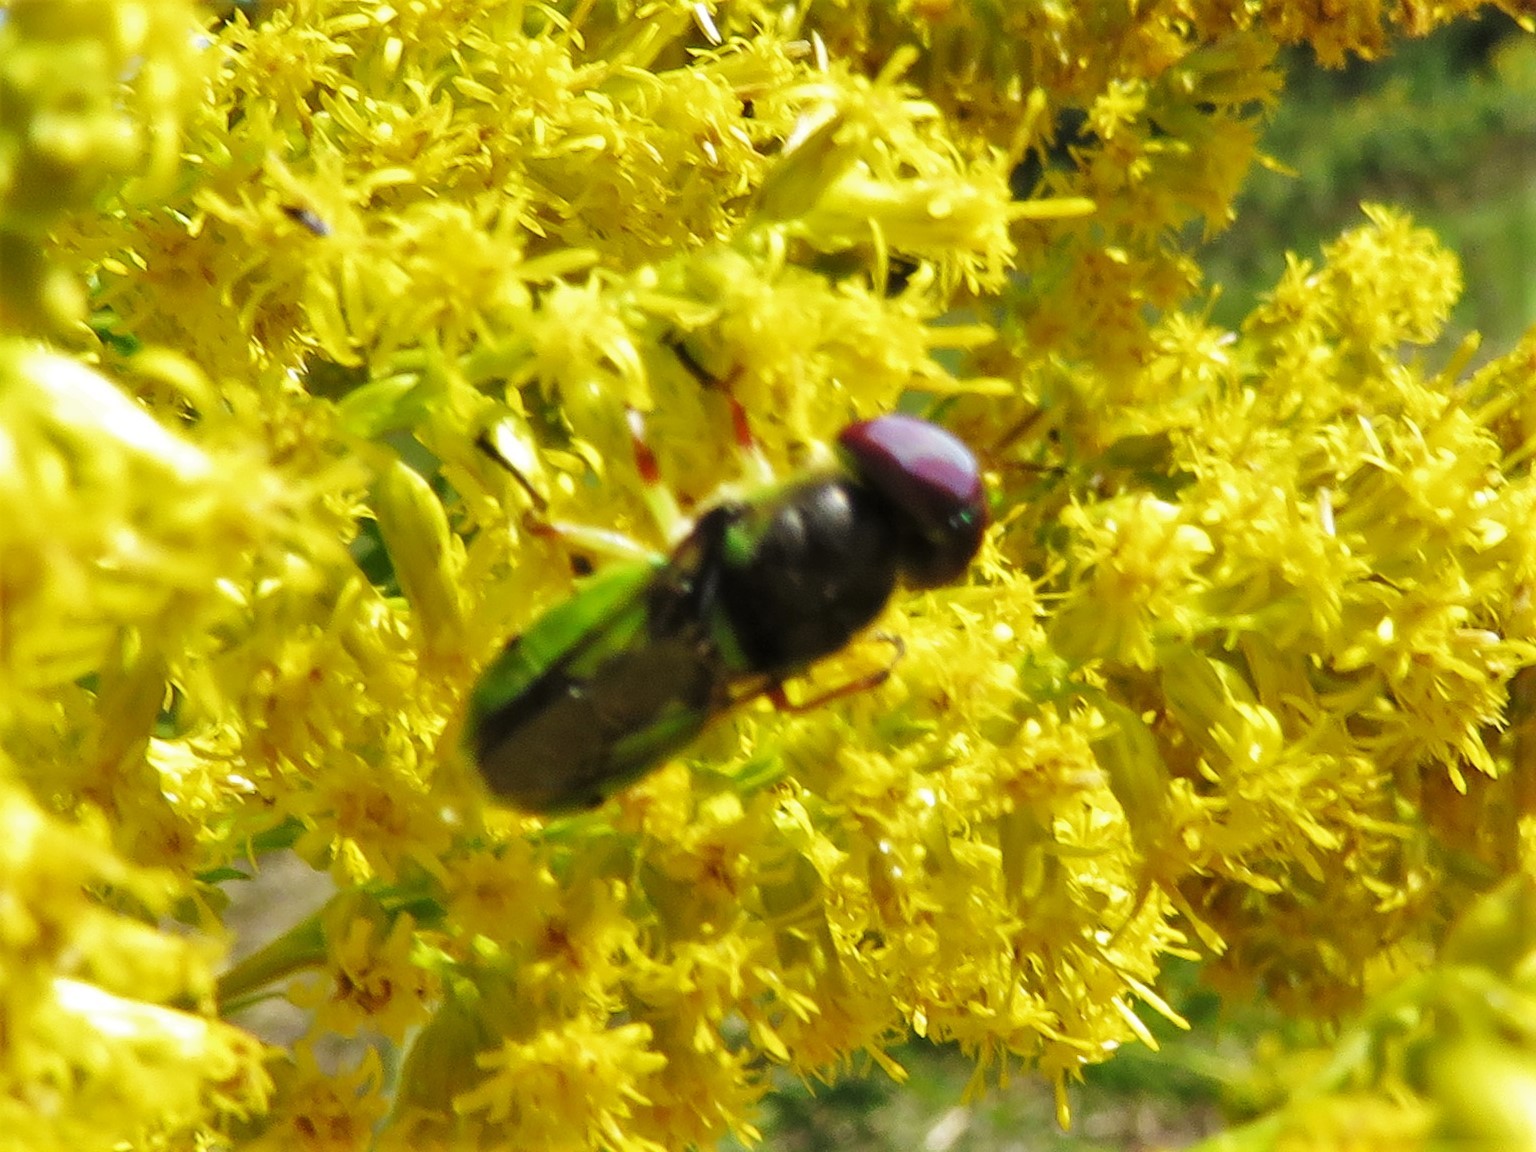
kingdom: Animalia
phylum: Arthropoda
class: Insecta
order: Diptera
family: Stratiomyidae
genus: Hedriodiscus
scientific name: Hedriodiscus truquii
